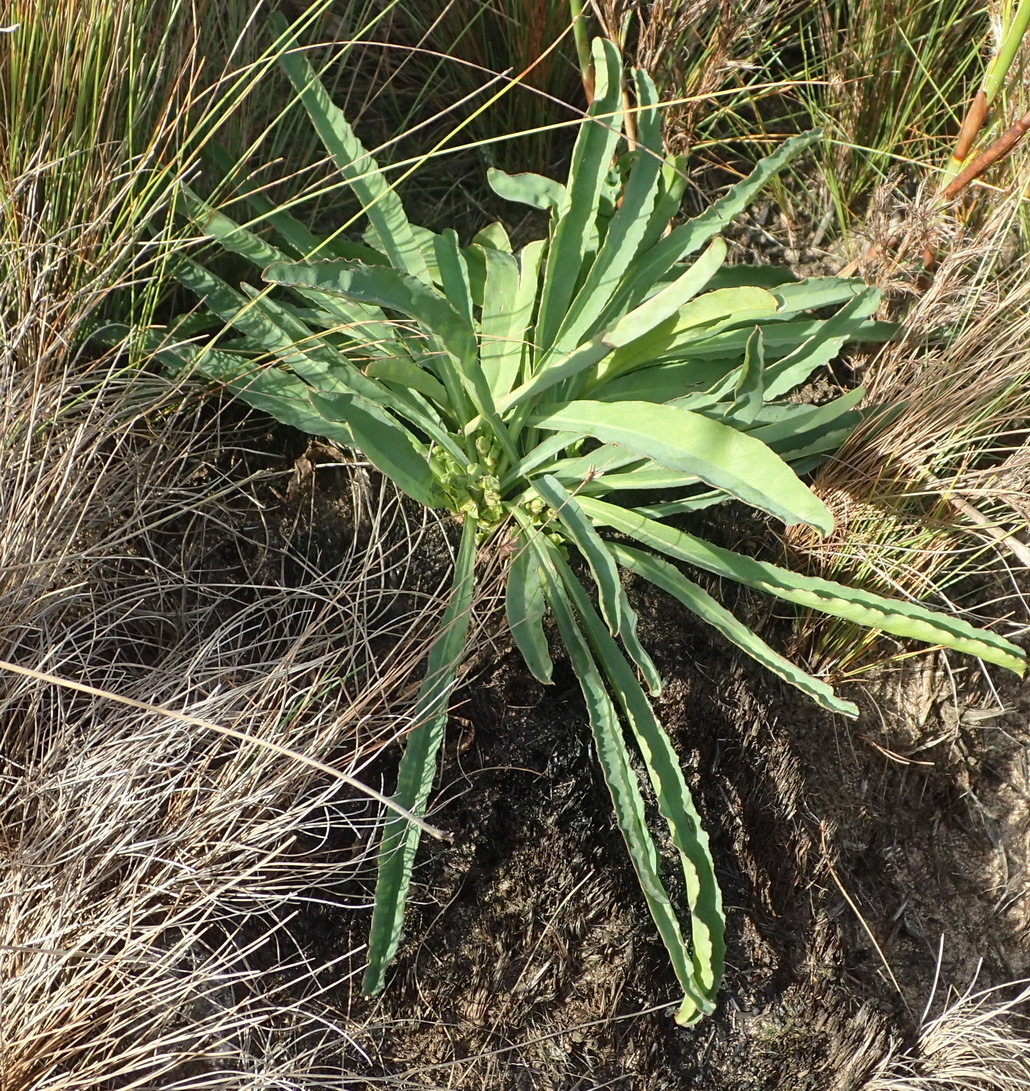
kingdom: Plantae
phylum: Tracheophyta
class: Magnoliopsida
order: Malpighiales
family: Euphorbiaceae
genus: Euphorbia
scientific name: Euphorbia silenifolia
